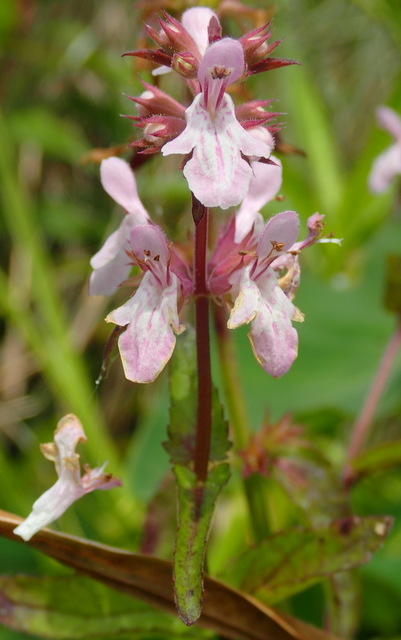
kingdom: Plantae
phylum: Tracheophyta
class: Magnoliopsida
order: Lamiales
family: Lamiaceae
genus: Stachys
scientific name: Stachys floridana
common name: Florida betony
